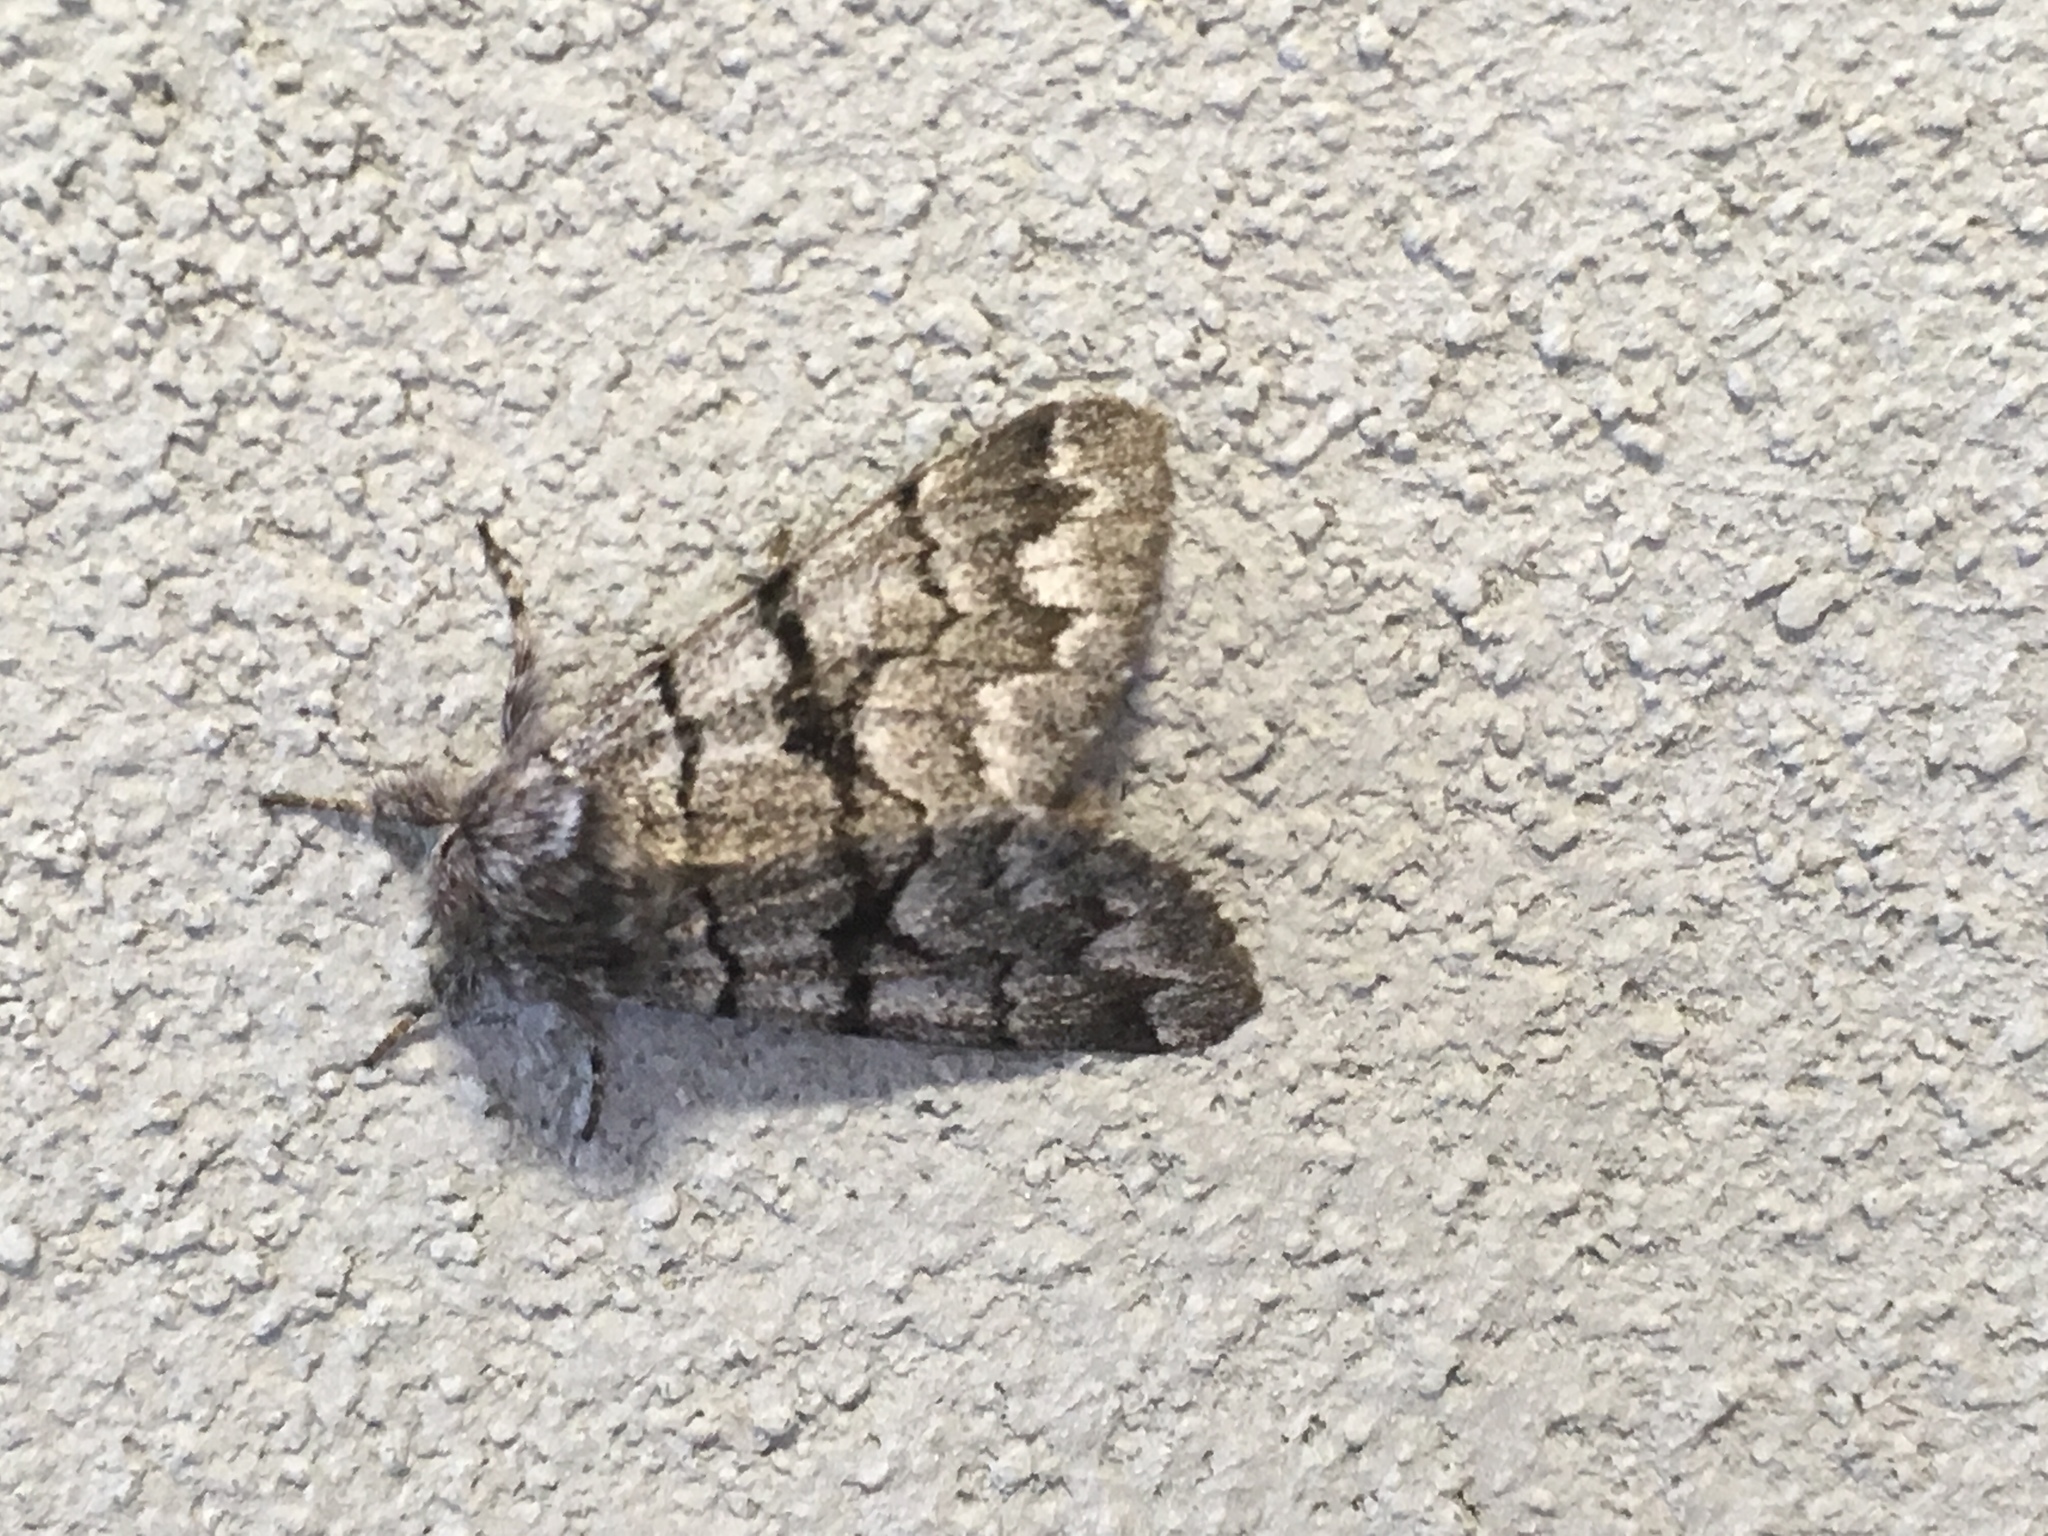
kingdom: Animalia
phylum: Arthropoda
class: Insecta
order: Lepidoptera
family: Noctuidae
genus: Panthea
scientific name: Panthea furcilla
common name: Eastern panthea moth
